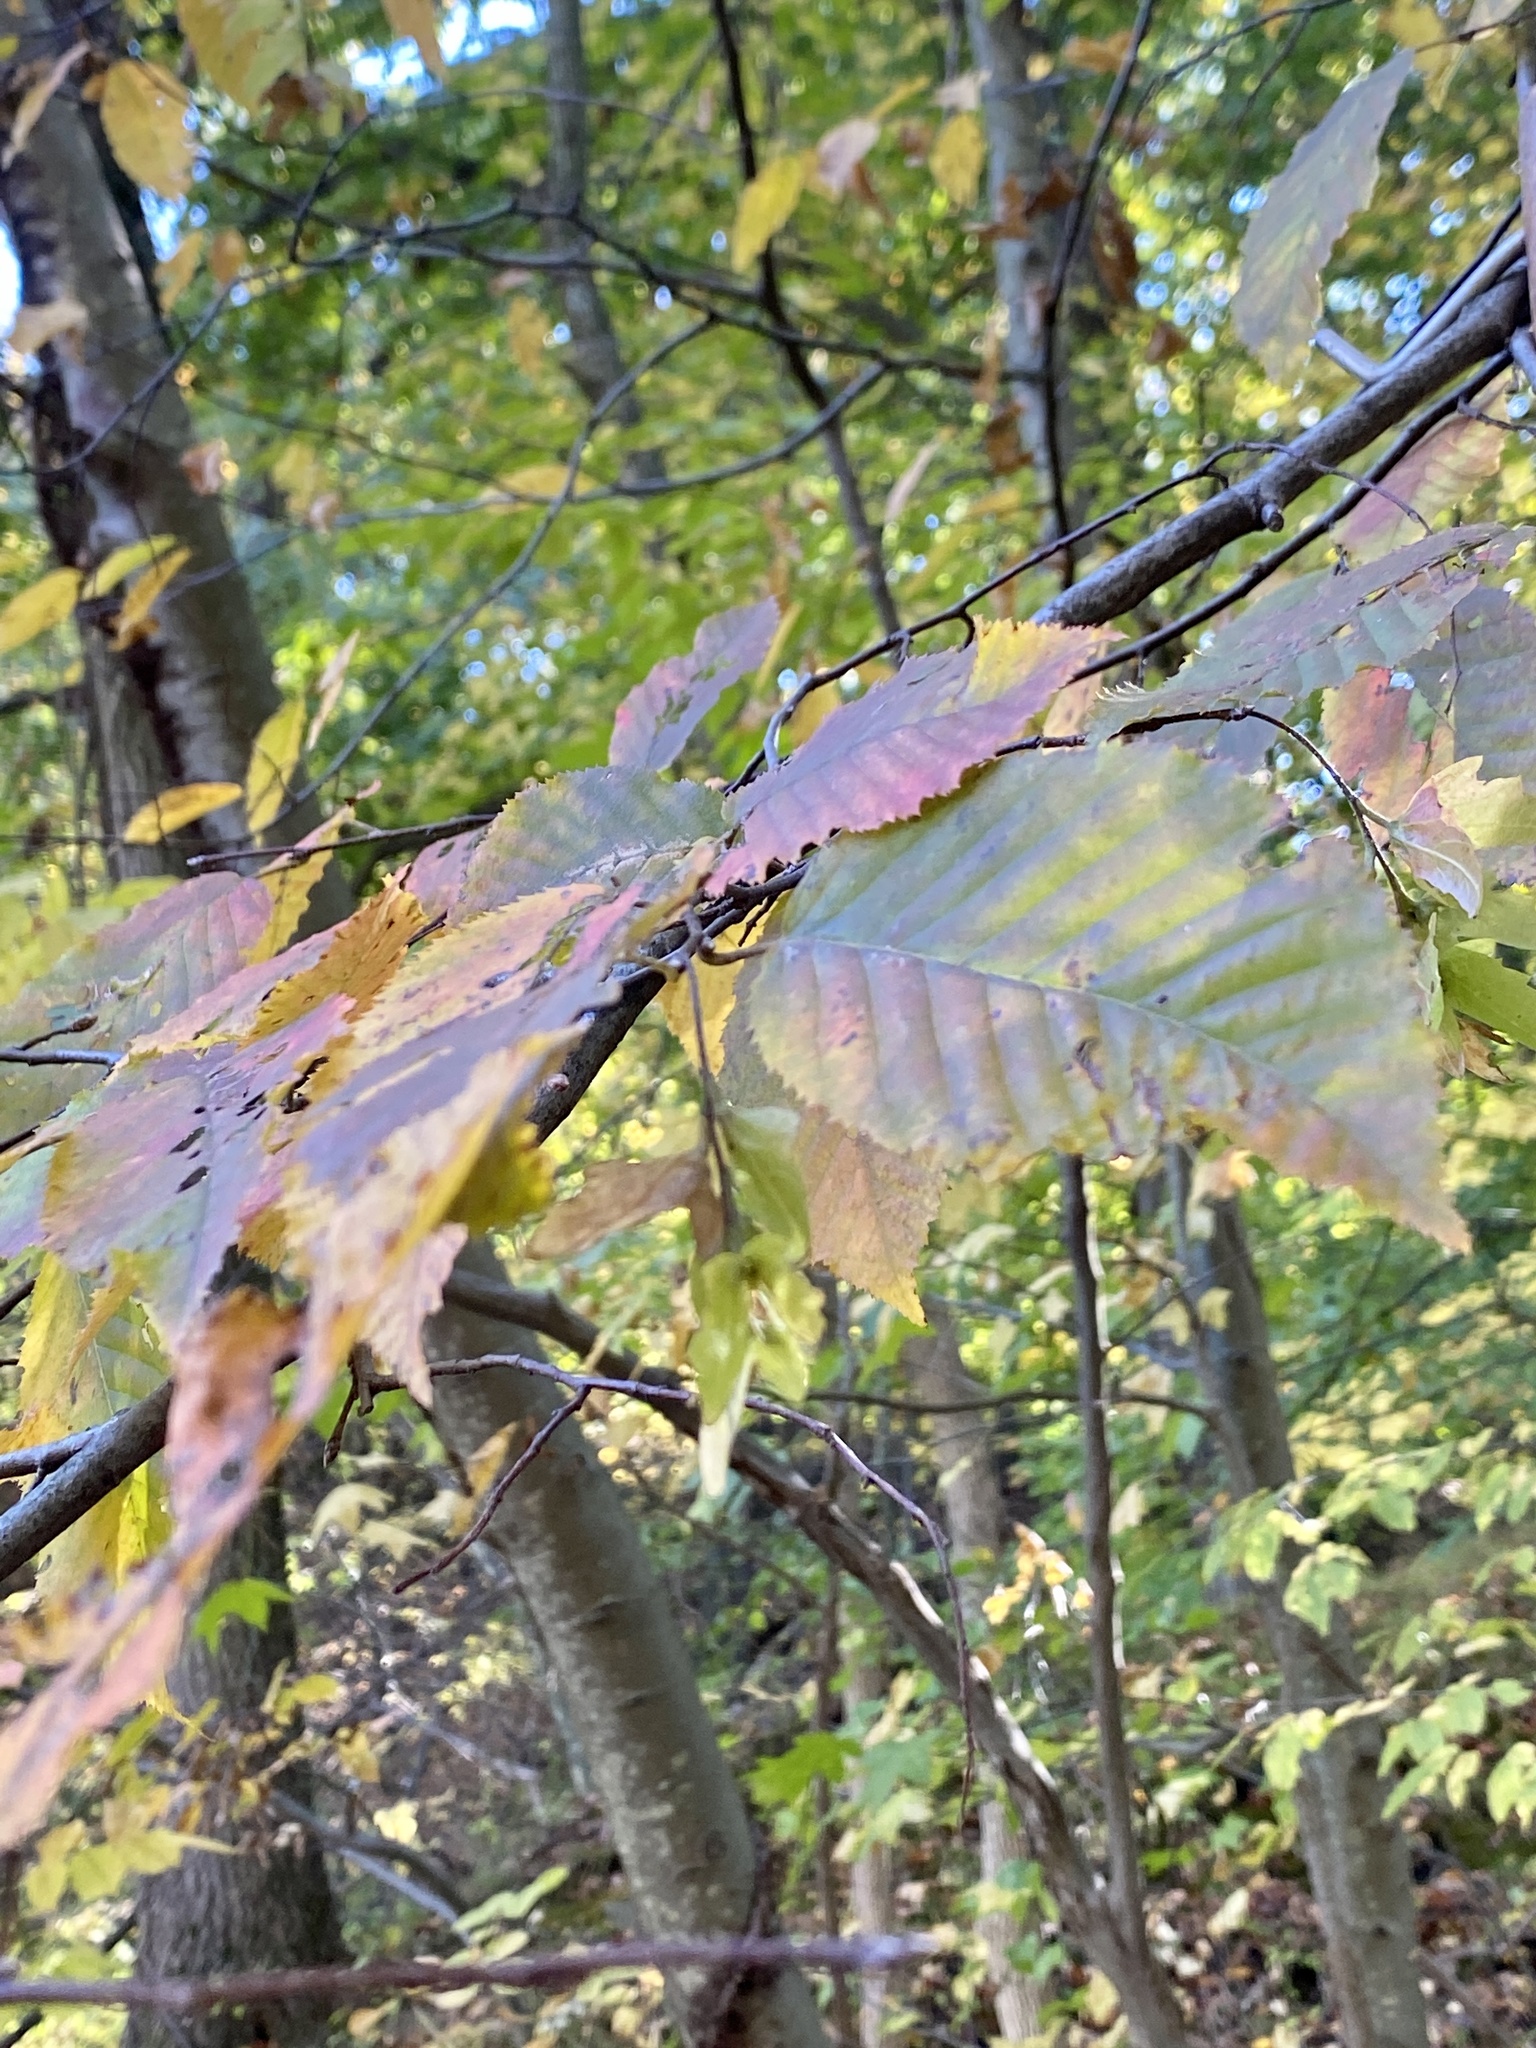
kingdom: Plantae
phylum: Tracheophyta
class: Magnoliopsida
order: Fagales
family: Betulaceae
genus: Carpinus
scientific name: Carpinus caroliniana
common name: American hornbeam
